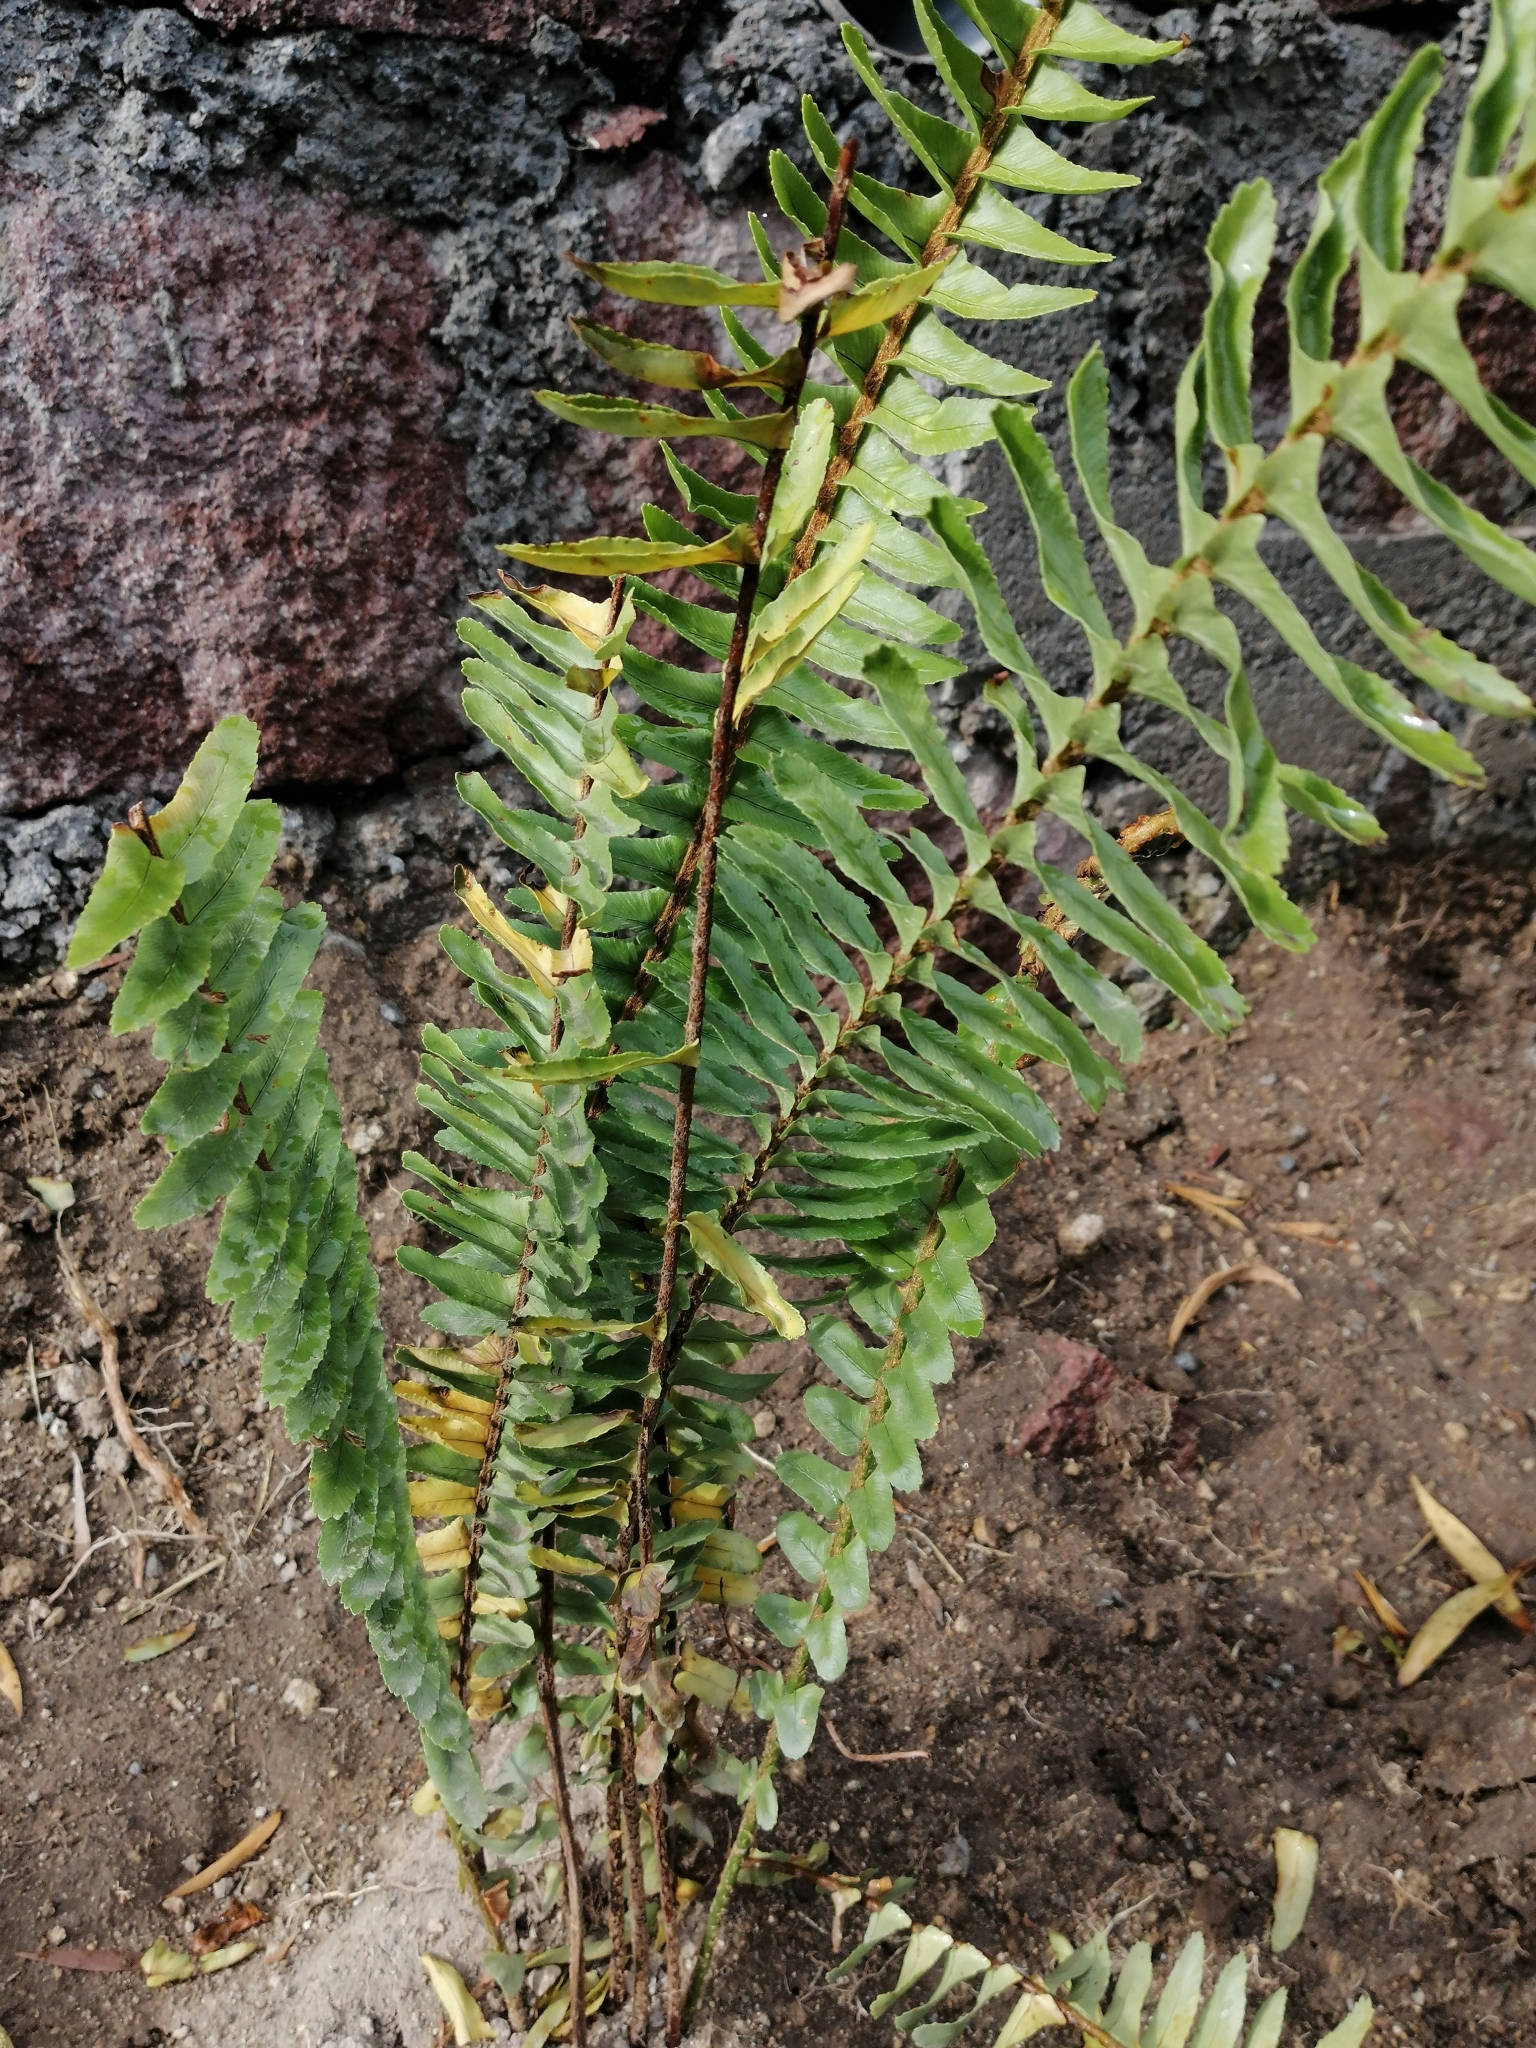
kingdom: Plantae
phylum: Tracheophyta
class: Polypodiopsida
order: Polypodiales
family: Nephrolepidaceae
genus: Nephrolepis
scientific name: Nephrolepis cordifolia
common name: Narrow swordfern
